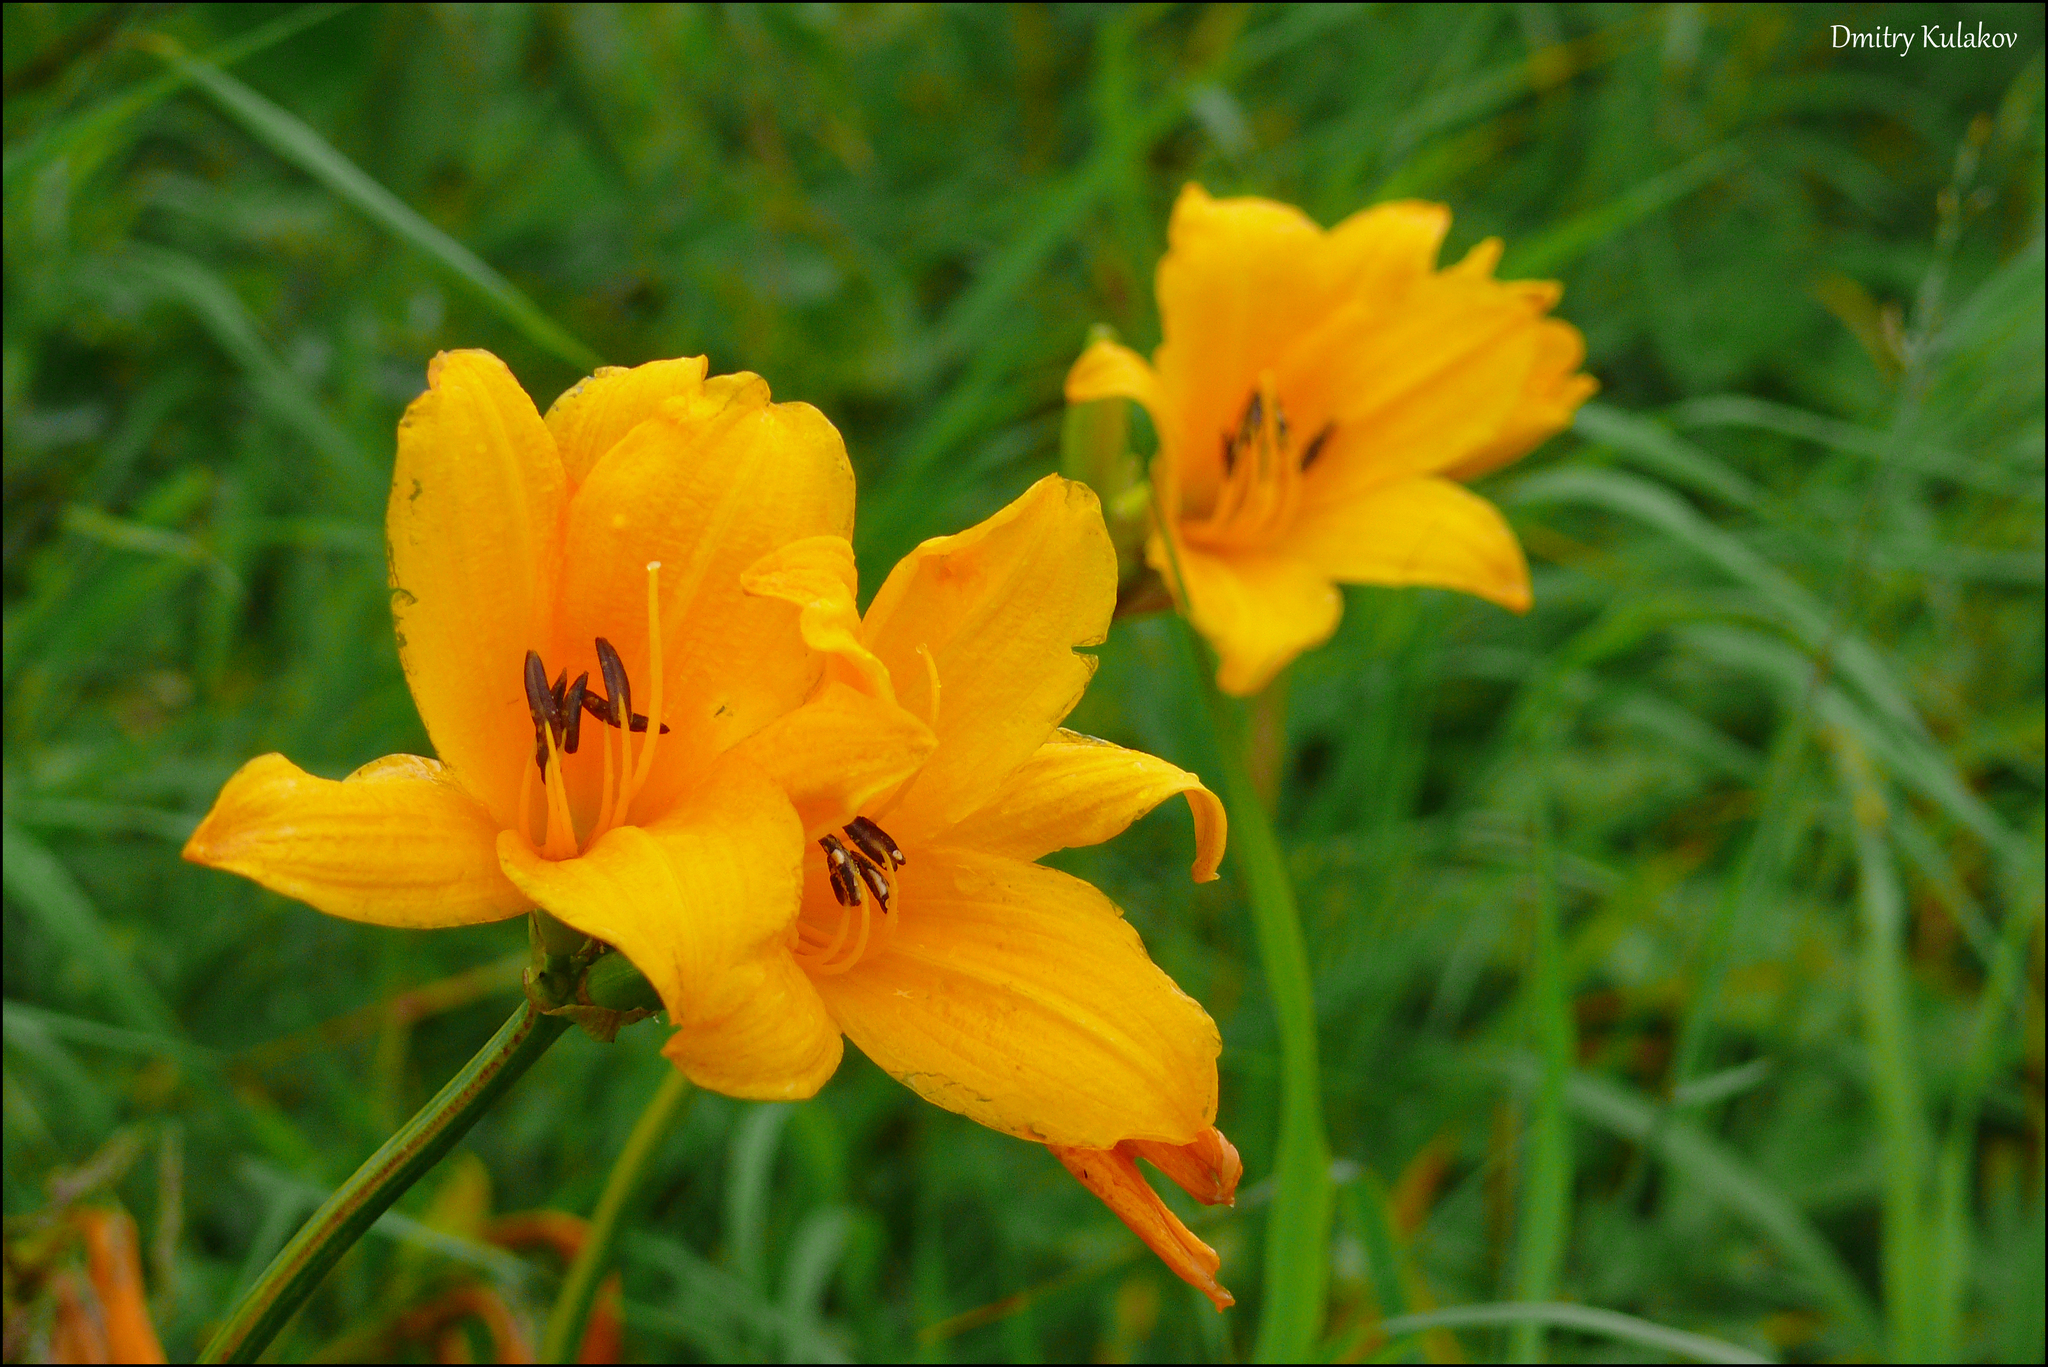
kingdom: Plantae
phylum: Tracheophyta
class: Liliopsida
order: Asparagales
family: Asphodelaceae
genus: Hemerocallis
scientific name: Hemerocallis middendorffii
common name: Amur day-lily
